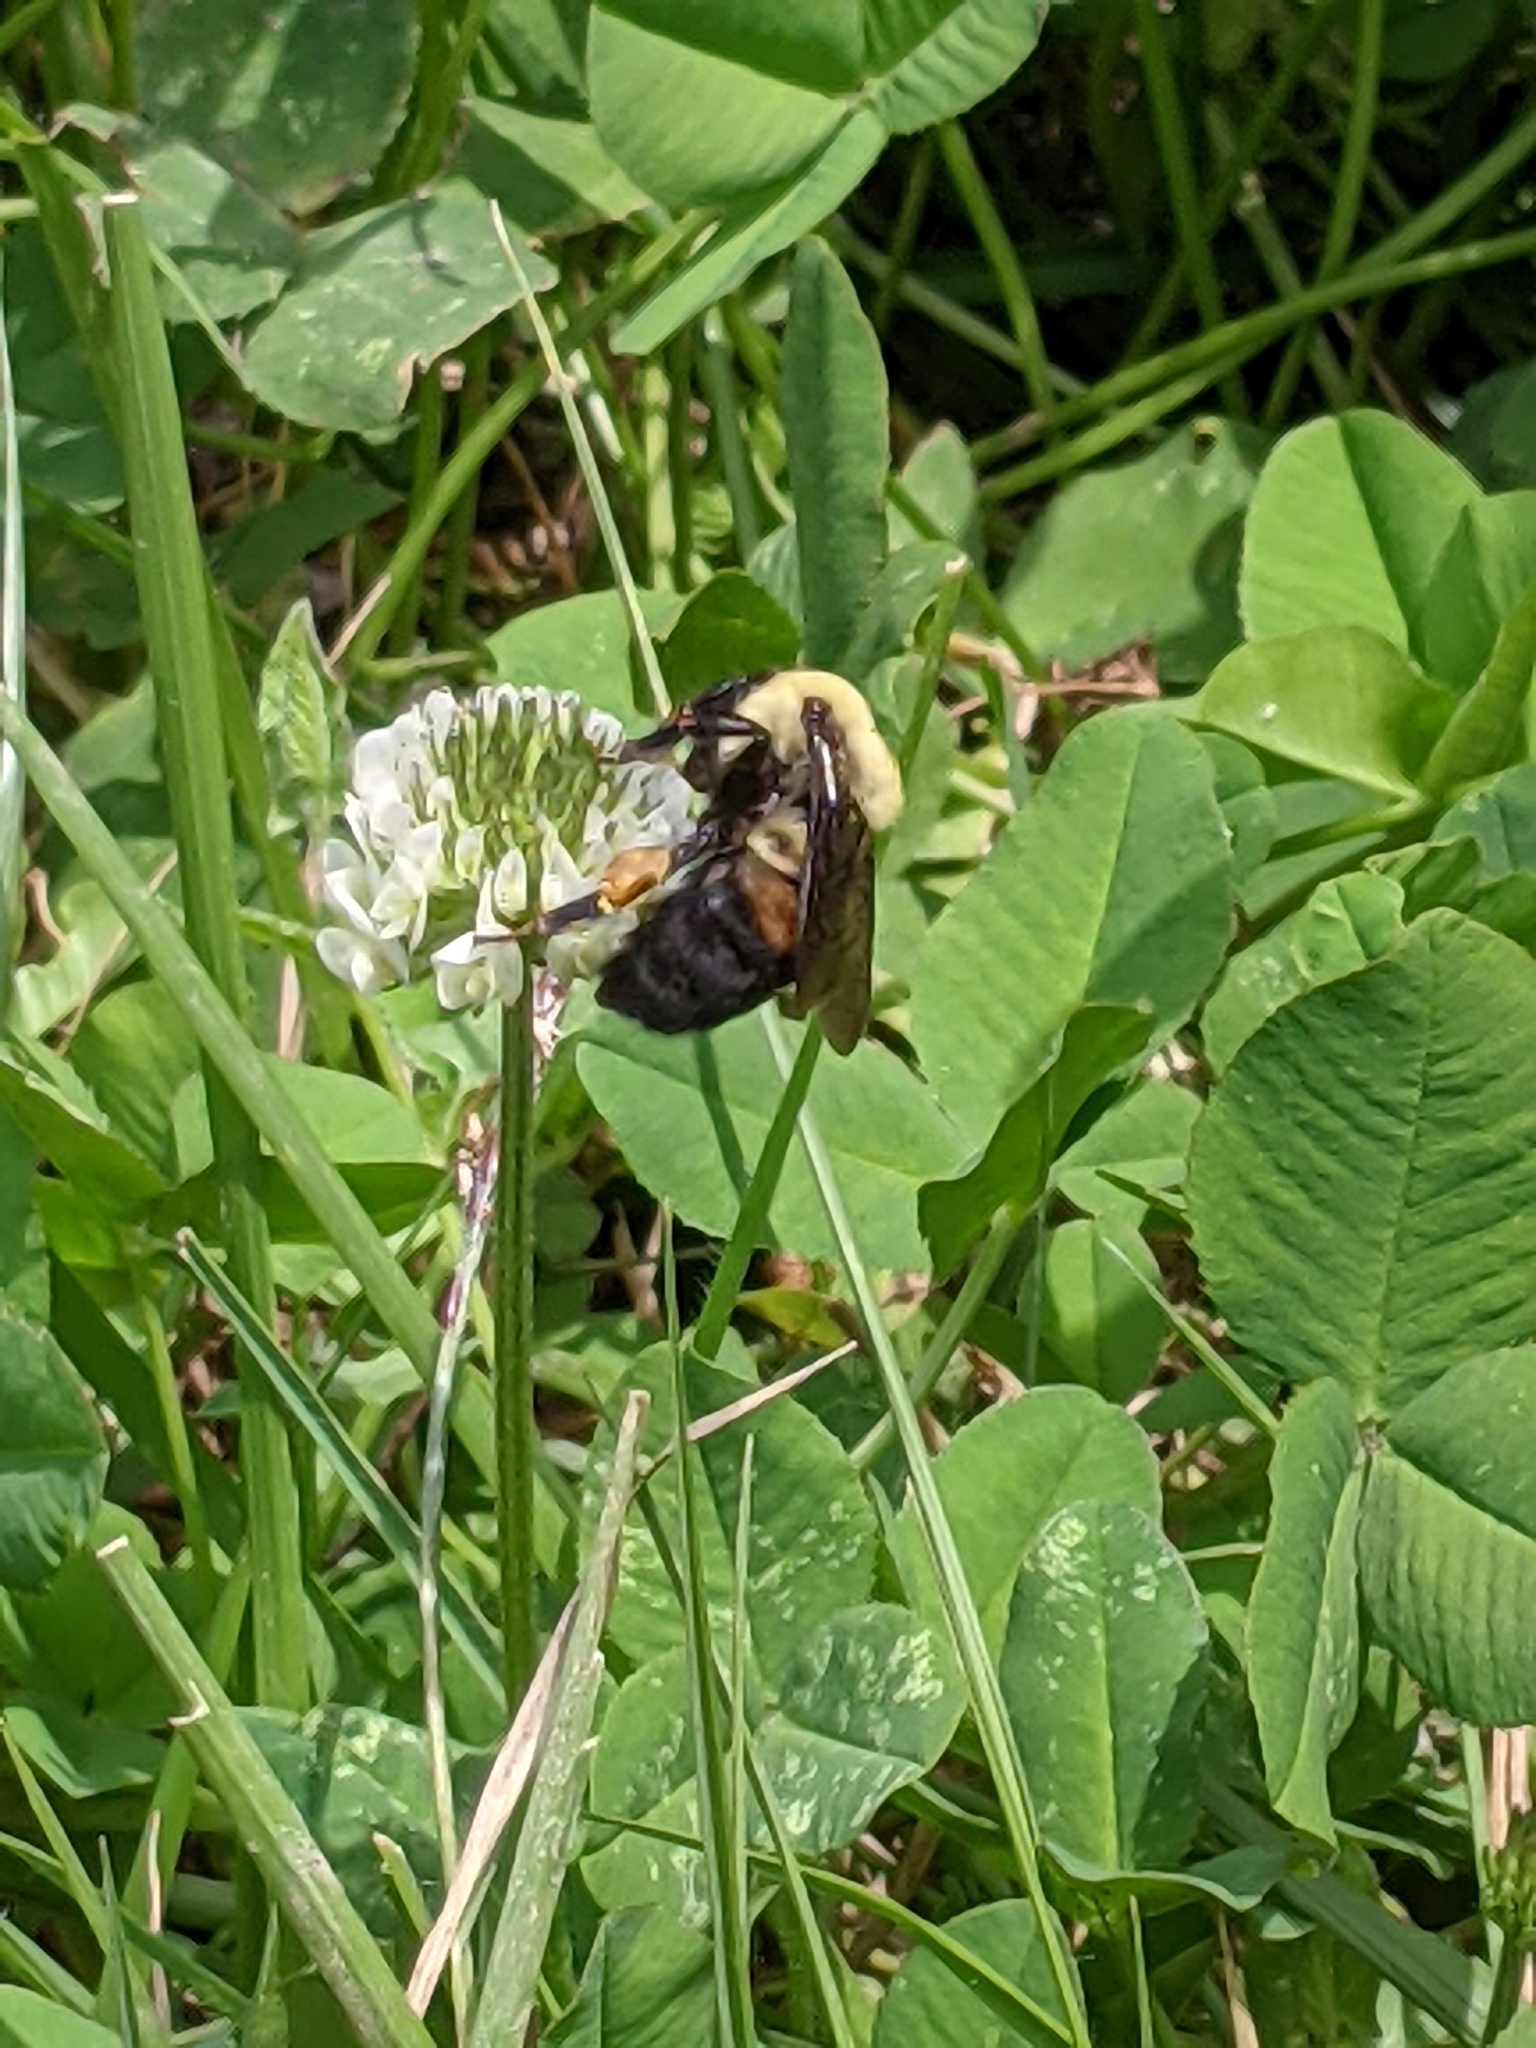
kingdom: Animalia
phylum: Arthropoda
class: Insecta
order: Hymenoptera
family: Apidae
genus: Bombus
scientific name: Bombus griseocollis
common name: Brown-belted bumble bee
